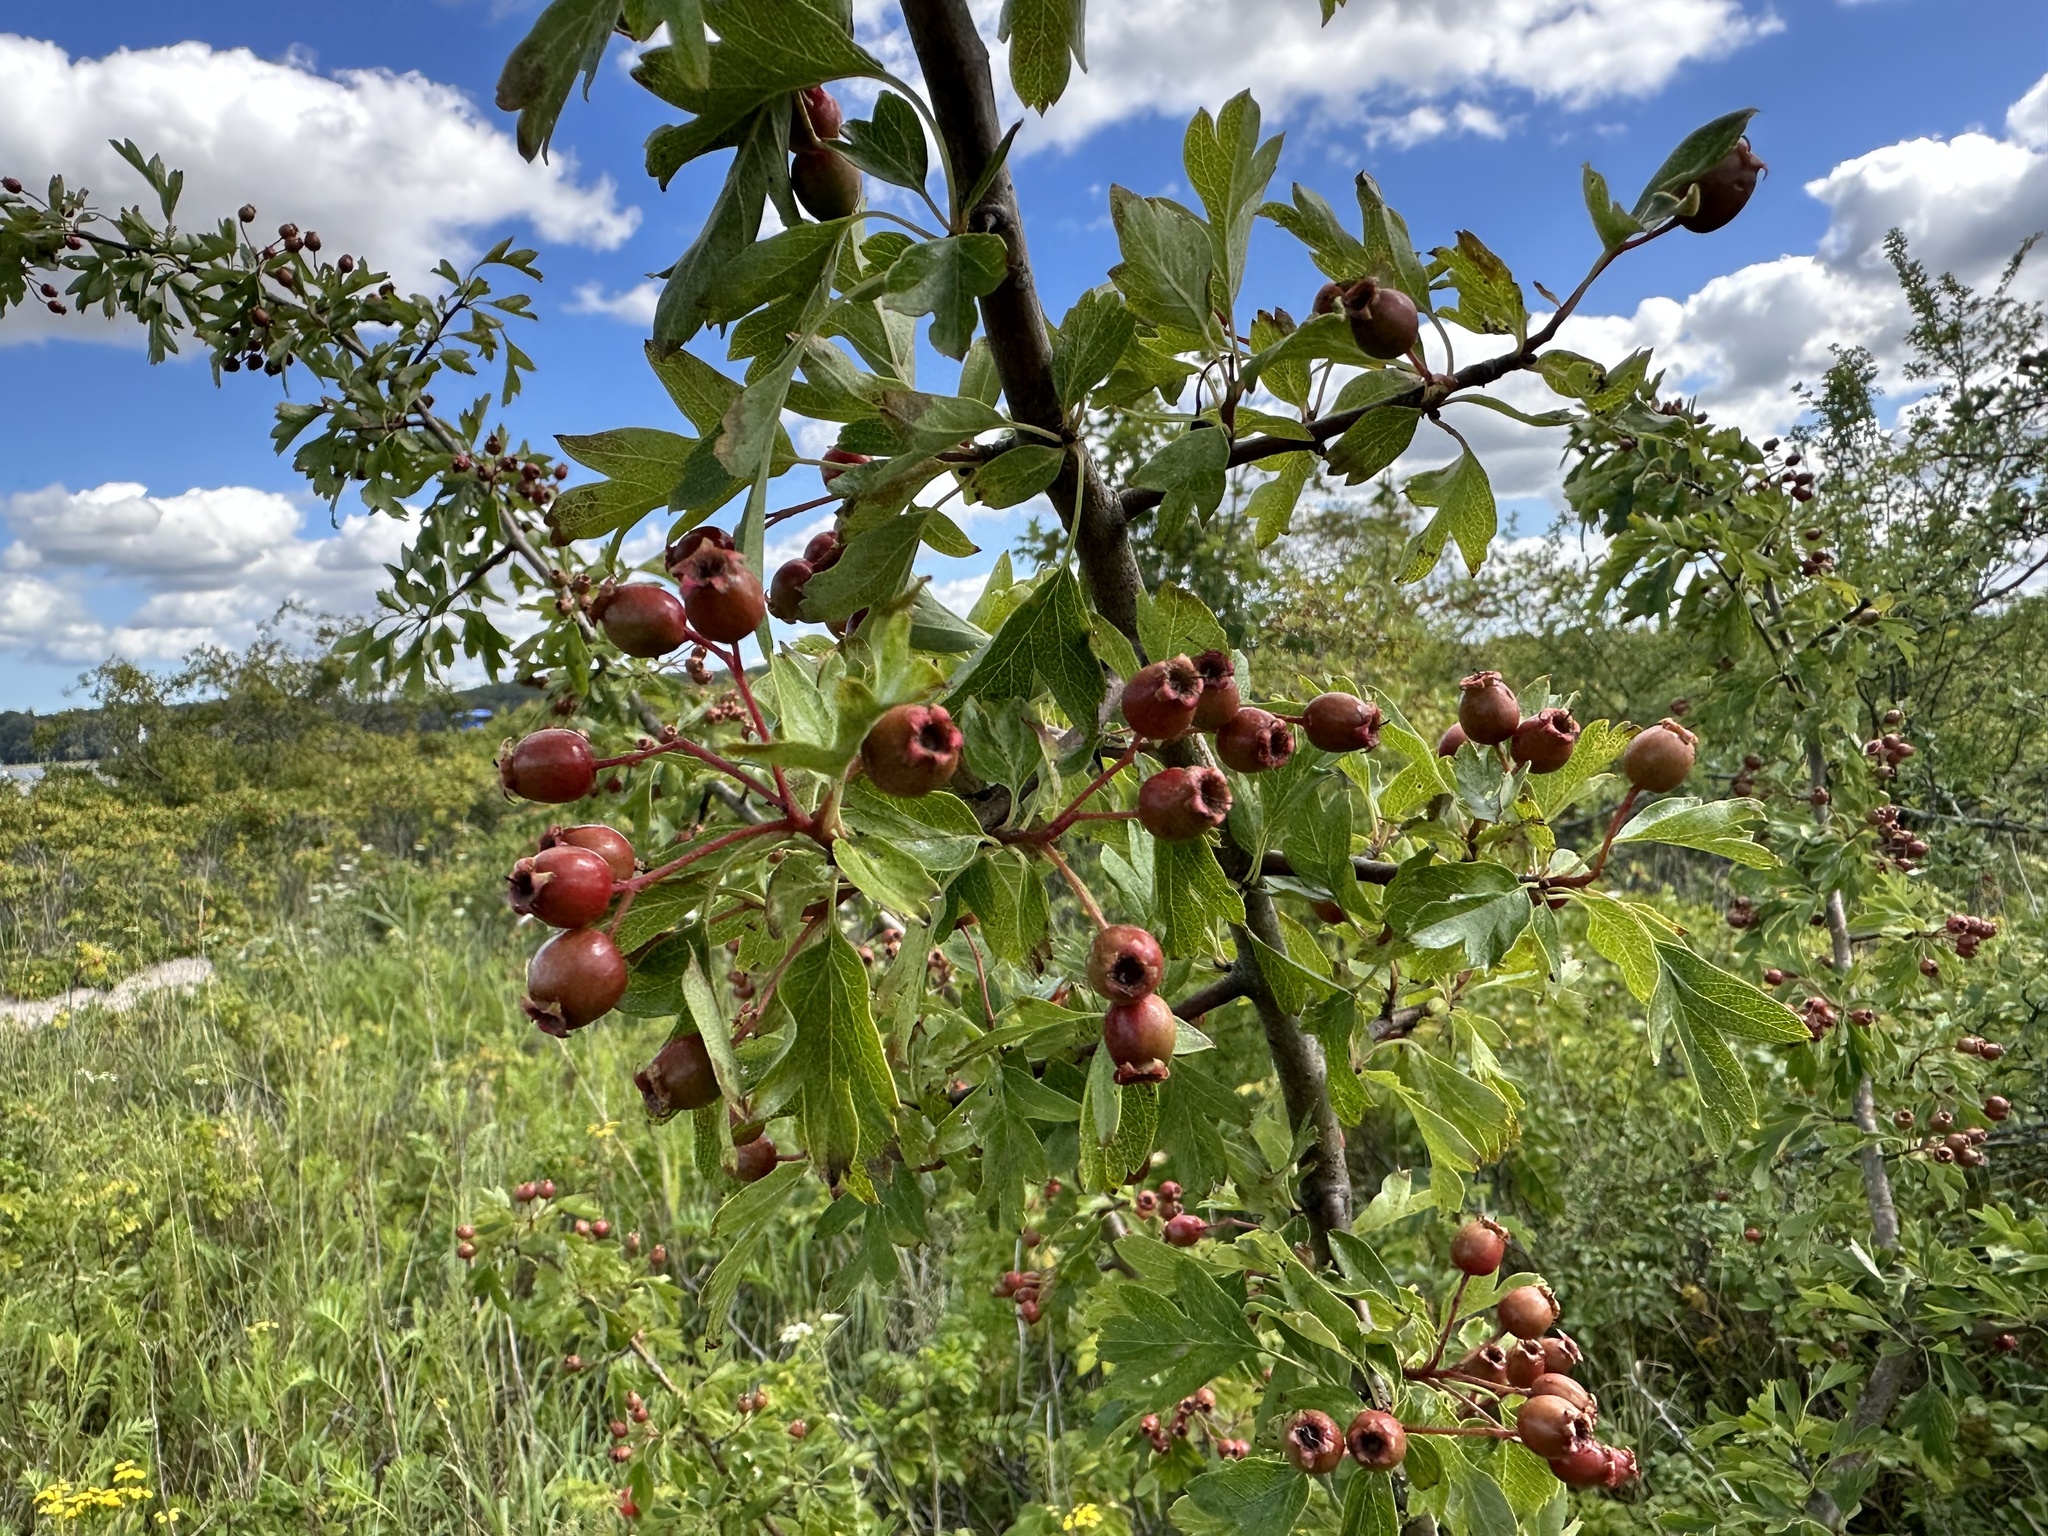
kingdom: Plantae
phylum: Tracheophyta
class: Magnoliopsida
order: Rosales
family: Rosaceae
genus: Crataegus
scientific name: Crataegus monogyna
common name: Hawthorn
